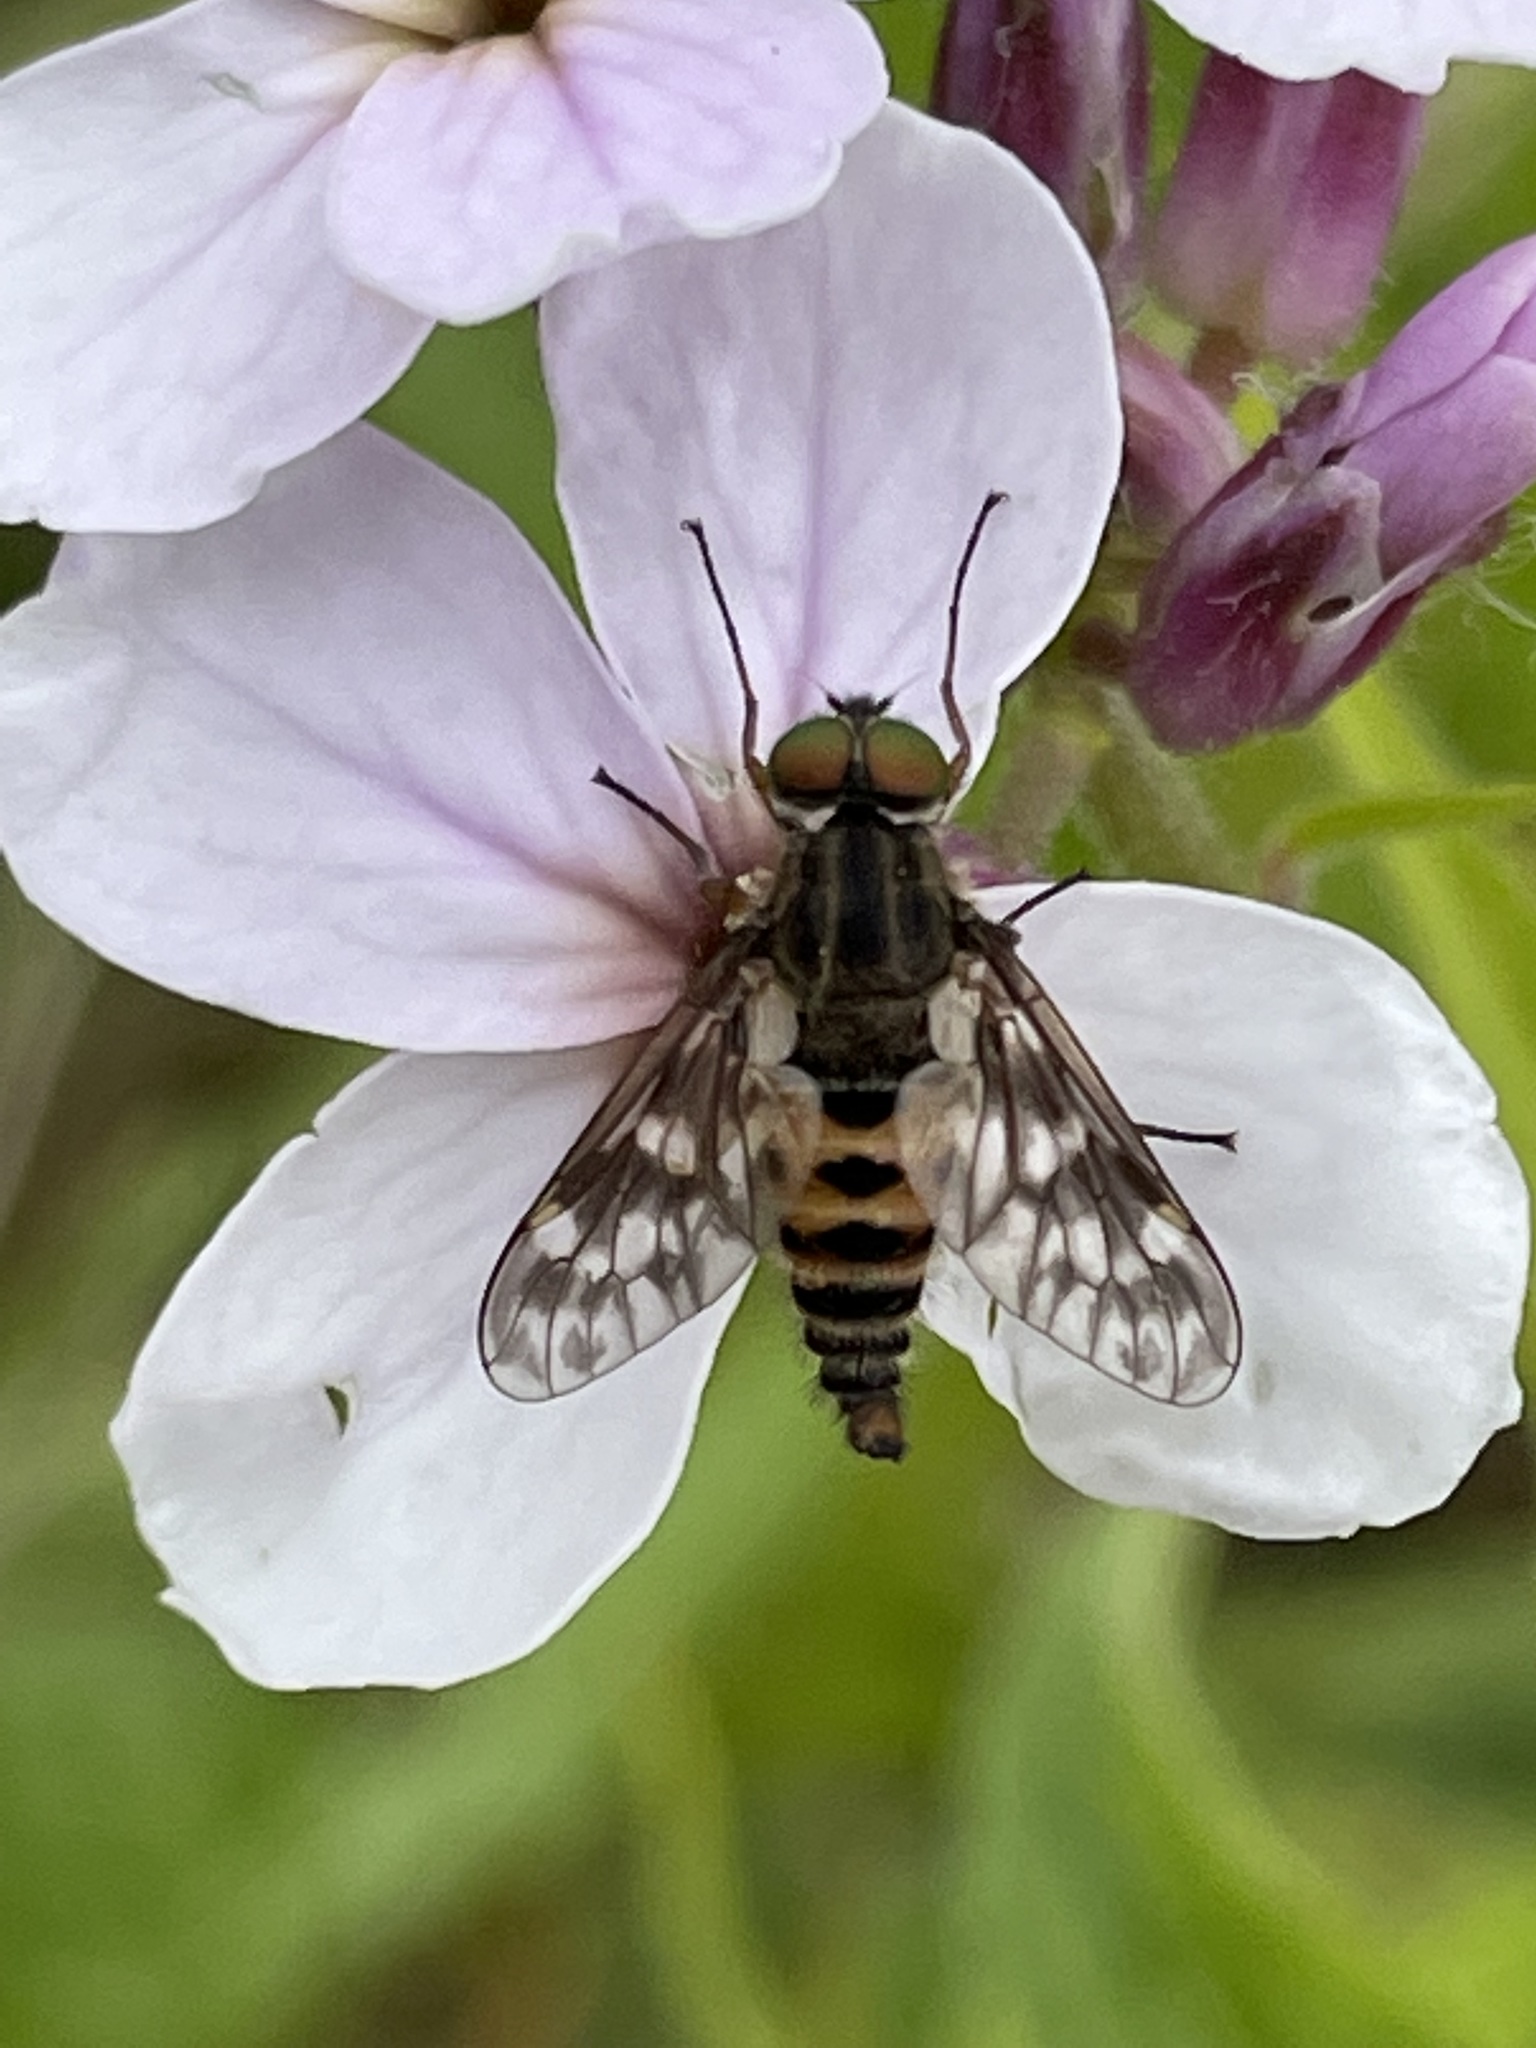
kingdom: Animalia
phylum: Arthropoda
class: Insecta
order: Diptera
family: Athericidae
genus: Atherix
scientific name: Atherix ibis
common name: Yellow-legged water-snipefly
